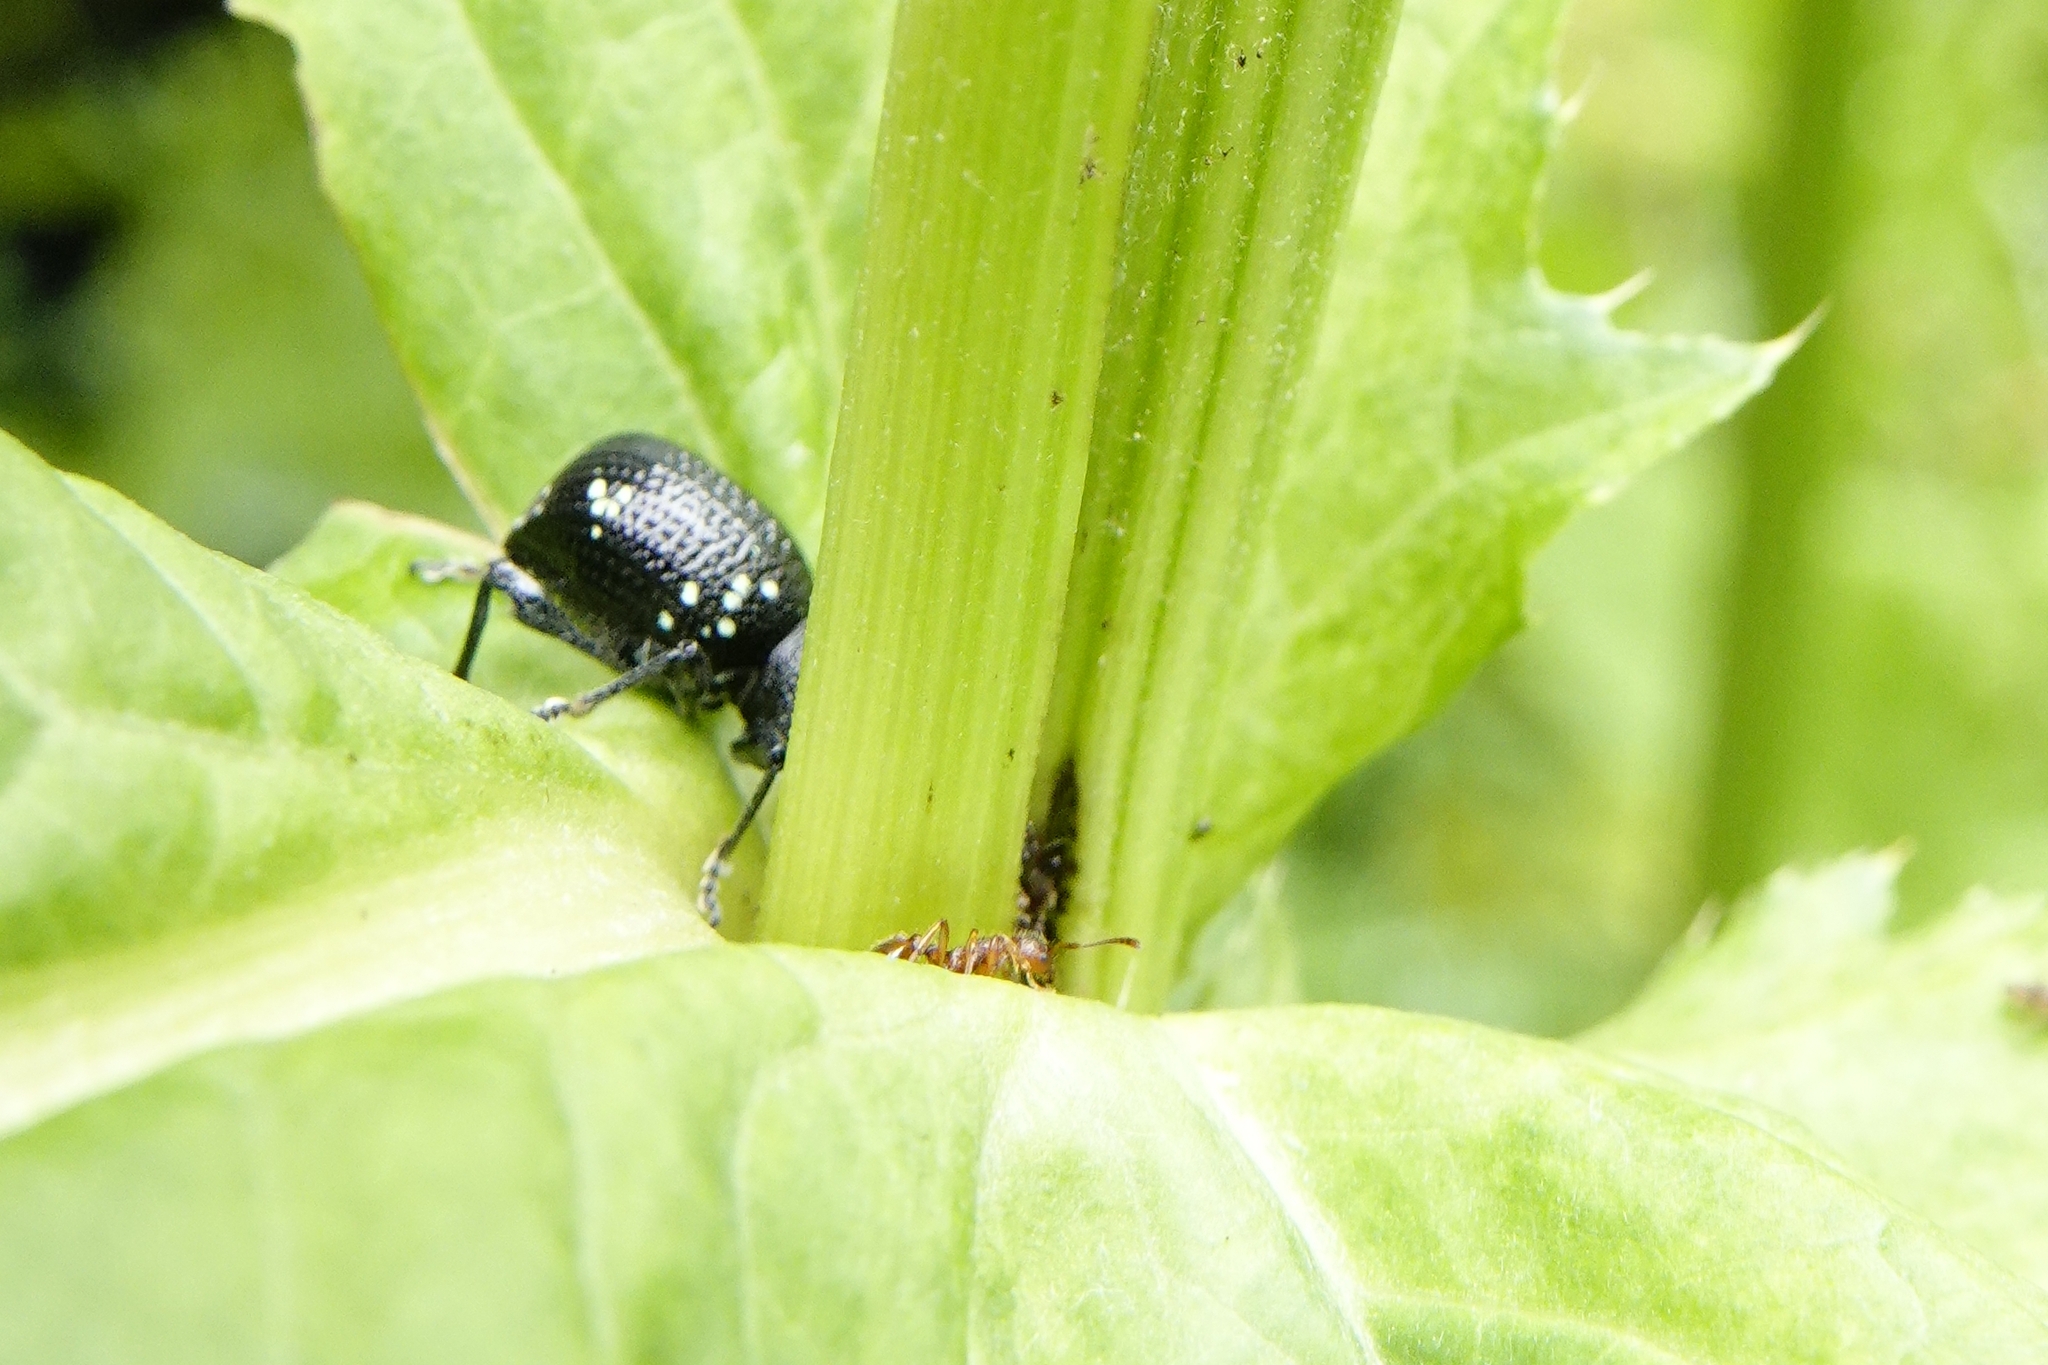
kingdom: Animalia
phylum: Arthropoda
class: Insecta
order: Coleoptera
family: Curculionidae
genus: Otiorhynchus
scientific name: Otiorhynchus gemmatus
